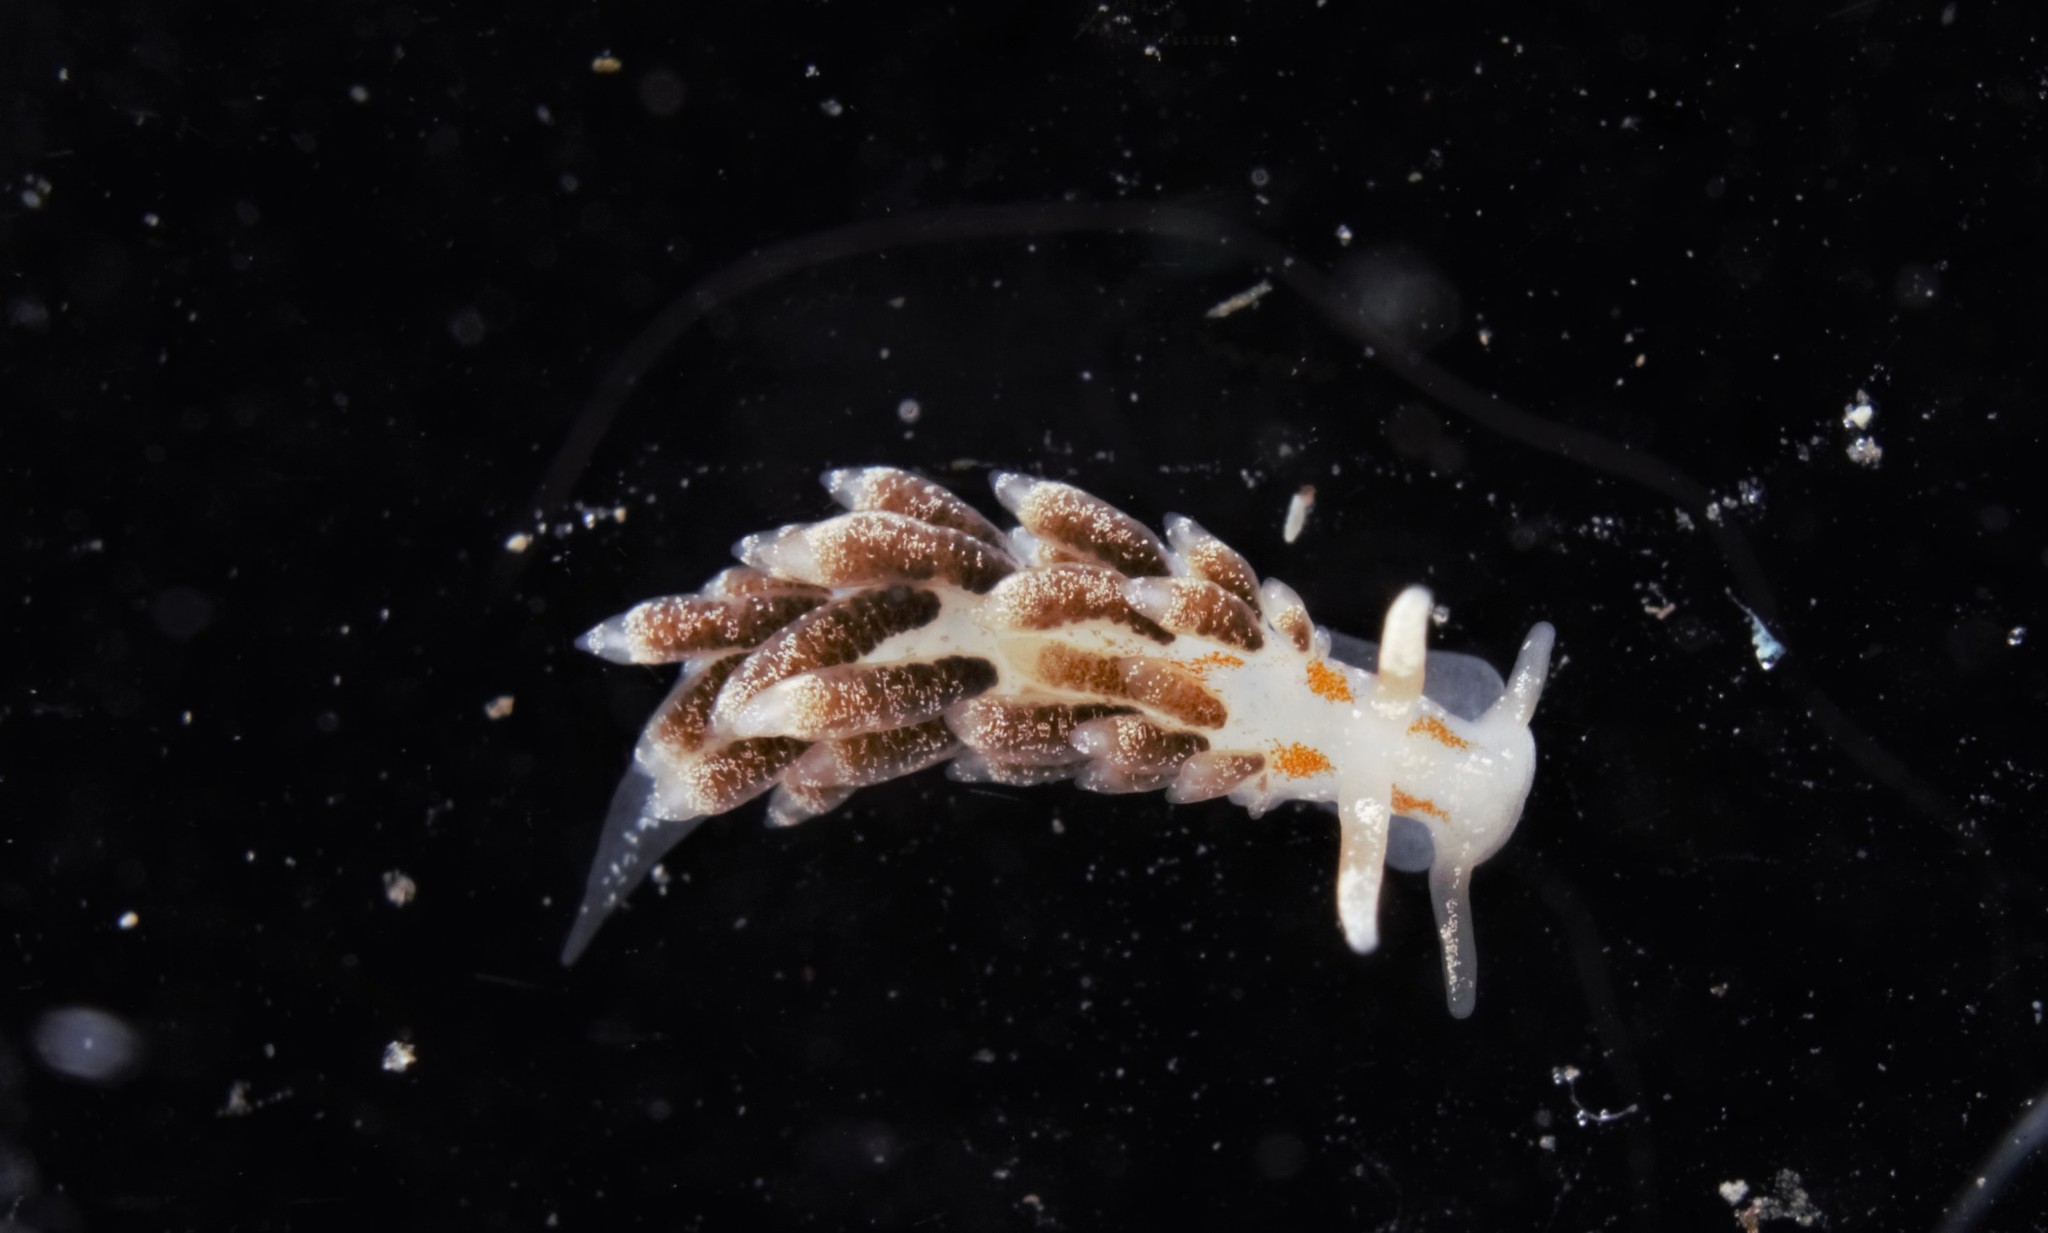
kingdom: Animalia
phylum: Mollusca
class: Gastropoda
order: Nudibranchia
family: Trinchesiidae
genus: Trinchesia
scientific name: Trinchesia foliata
